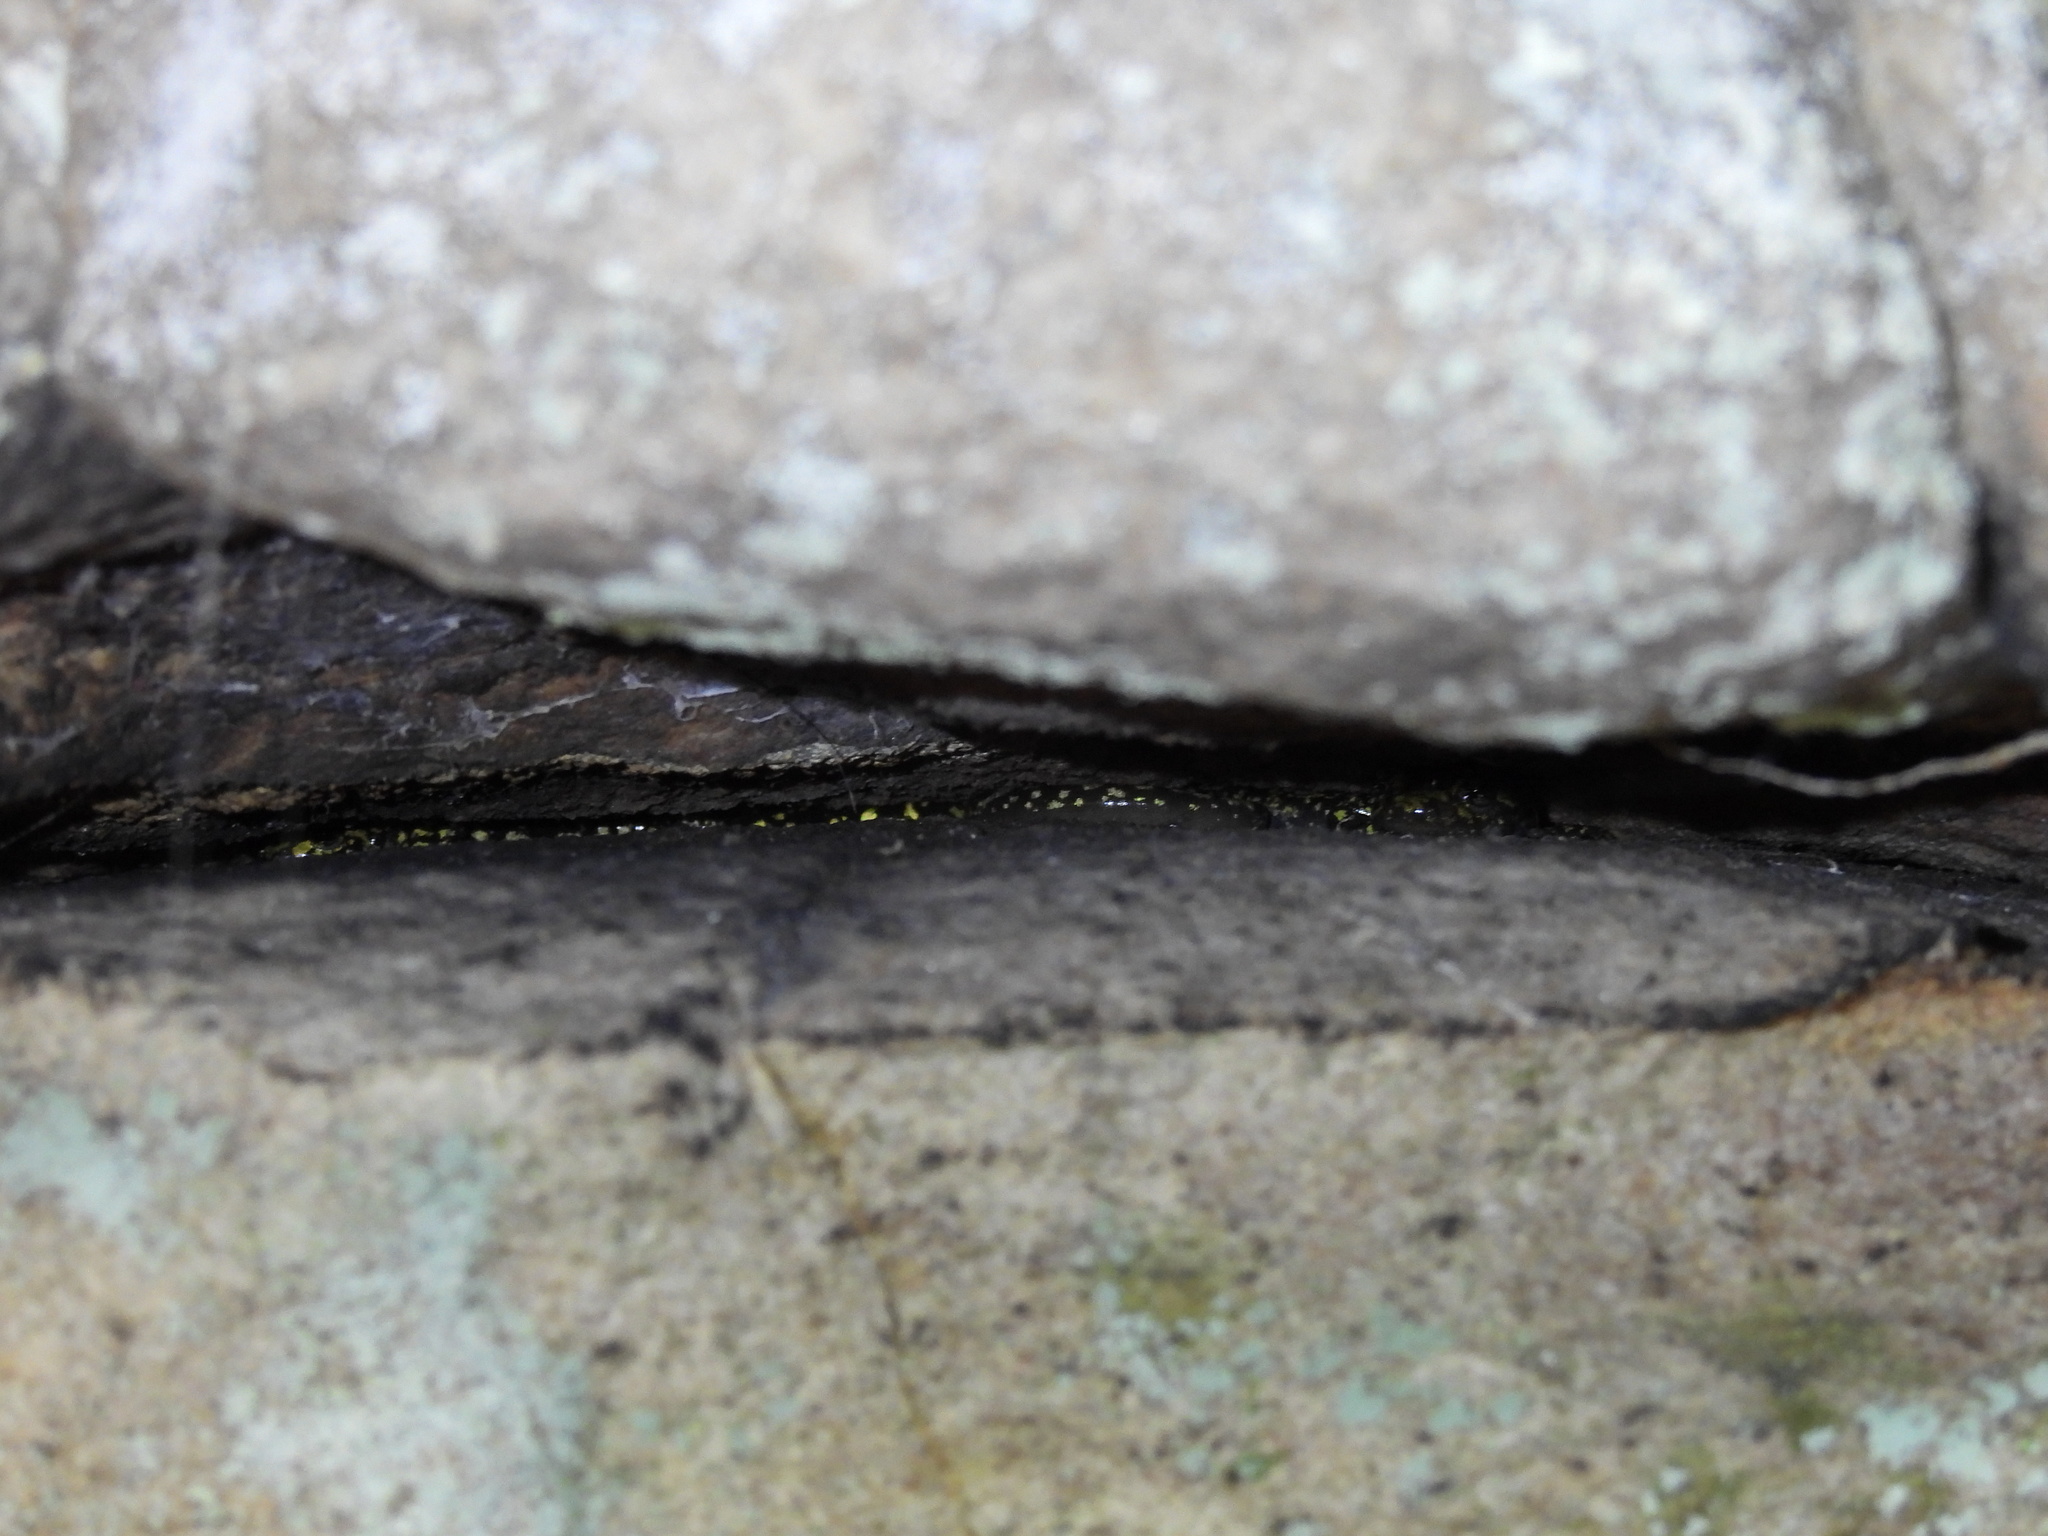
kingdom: Animalia
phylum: Chordata
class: Amphibia
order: Caudata
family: Plethodontidae
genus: Aneides
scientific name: Aneides aeneus
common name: Green salamander
